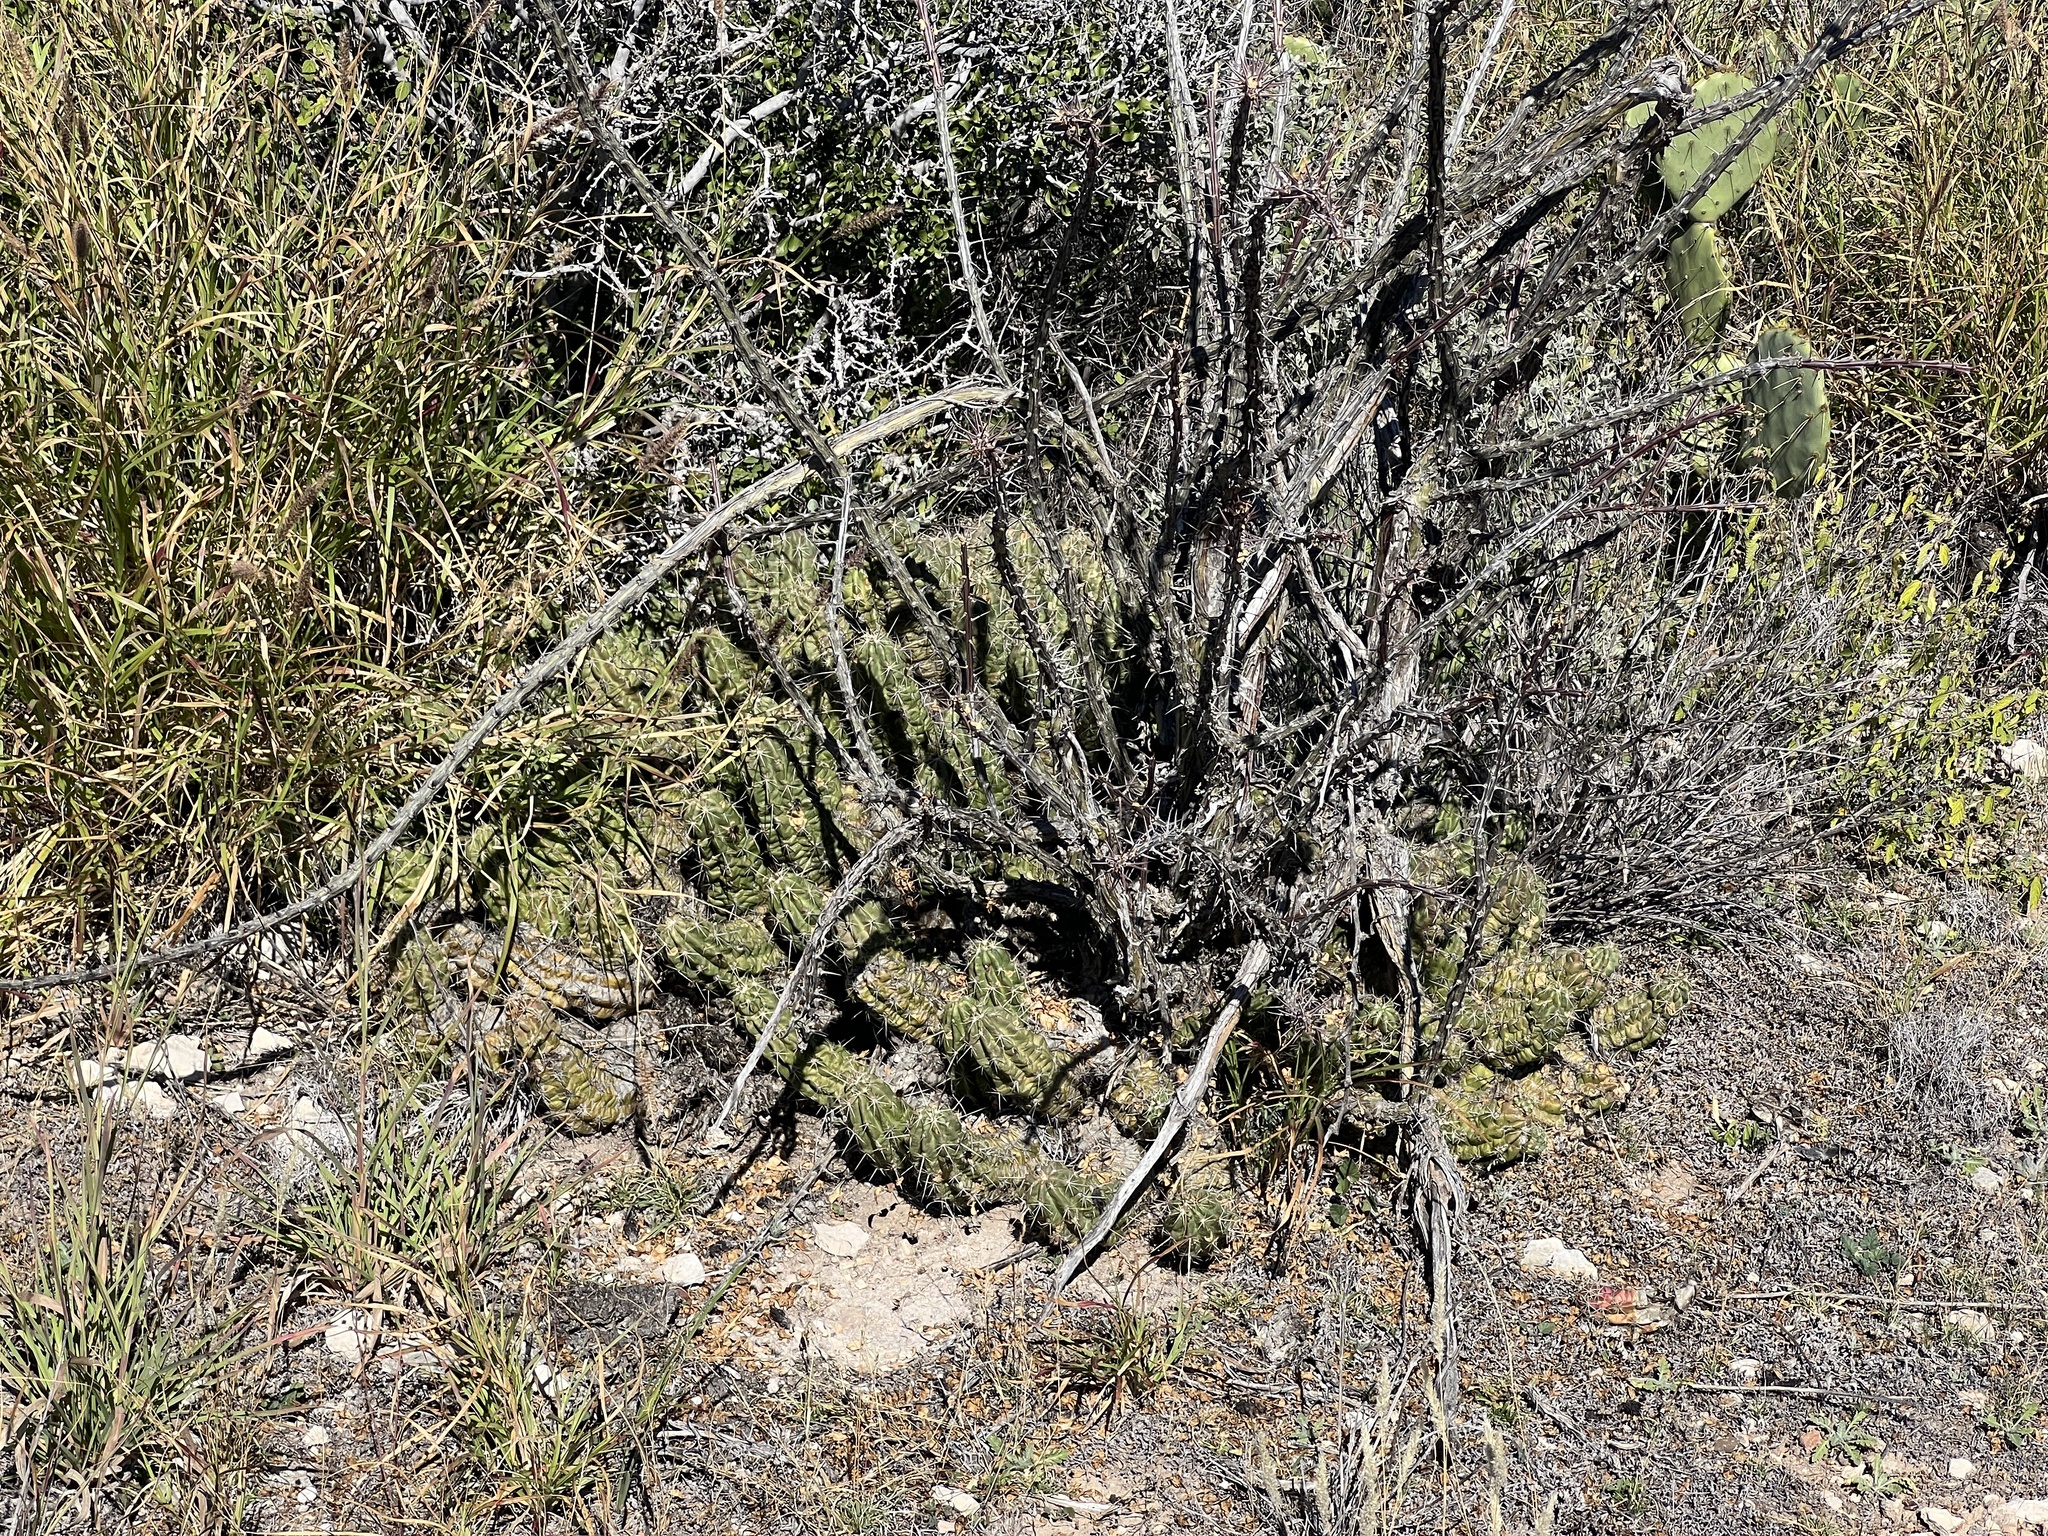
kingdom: Plantae
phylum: Tracheophyta
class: Magnoliopsida
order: Caryophyllales
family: Cactaceae
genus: Echinocereus
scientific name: Echinocereus enneacanthus
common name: Pitaya
